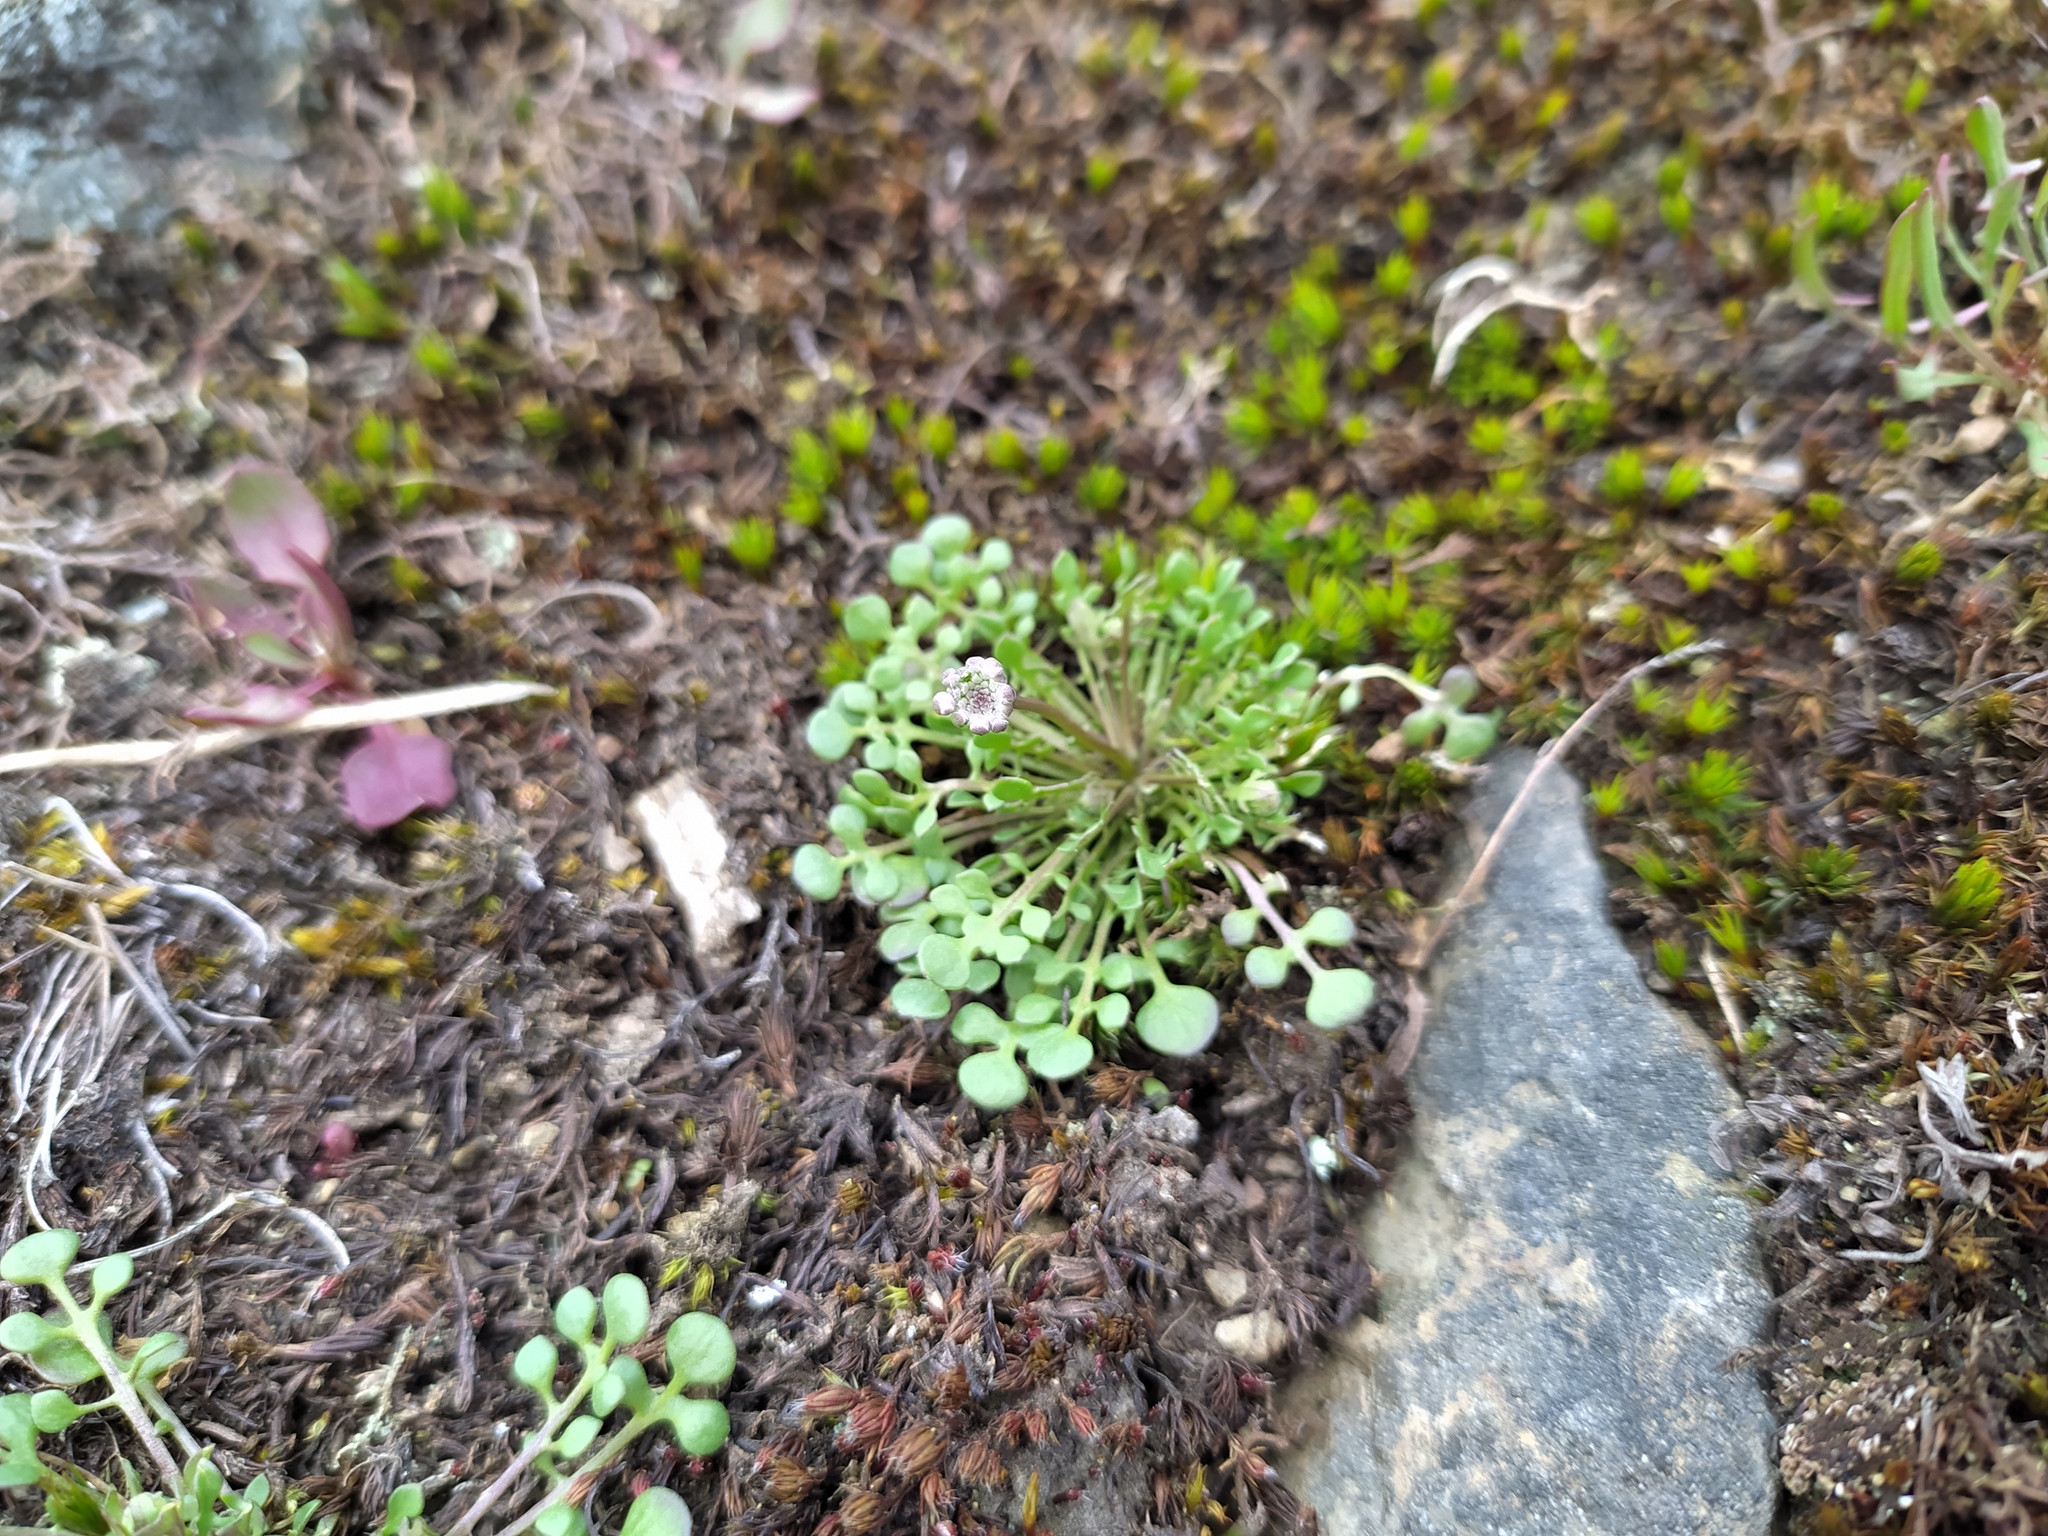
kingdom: Plantae
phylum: Tracheophyta
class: Magnoliopsida
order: Brassicales
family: Brassicaceae
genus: Teesdalia
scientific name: Teesdalia nudicaulis
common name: Shepherd's cress
